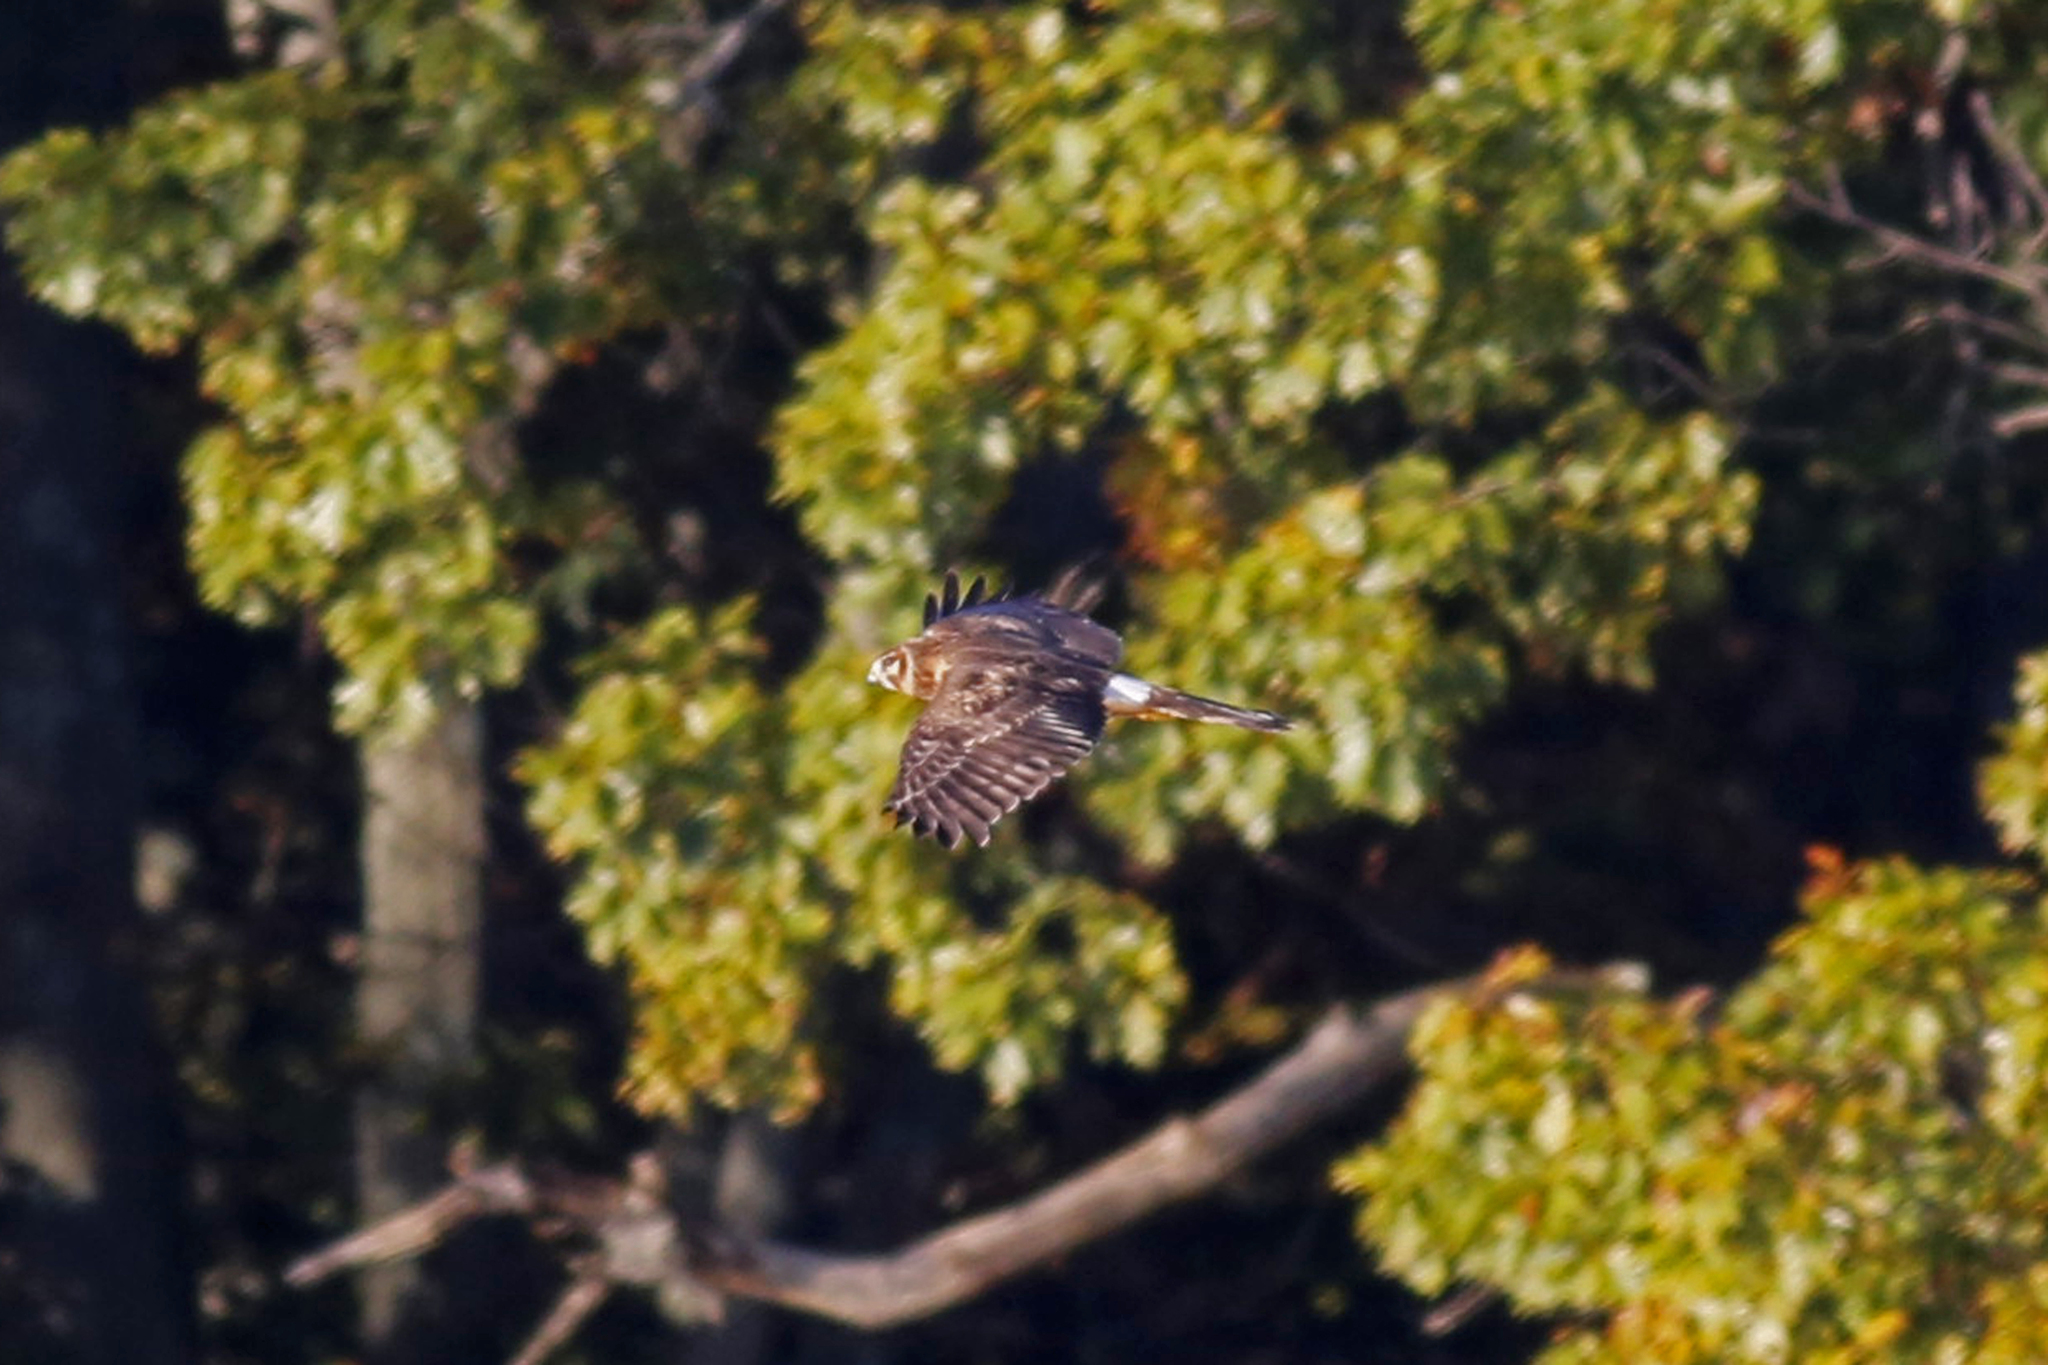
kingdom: Animalia
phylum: Chordata
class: Aves
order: Accipitriformes
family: Accipitridae
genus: Circus
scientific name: Circus cyaneus
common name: Hen harrier
